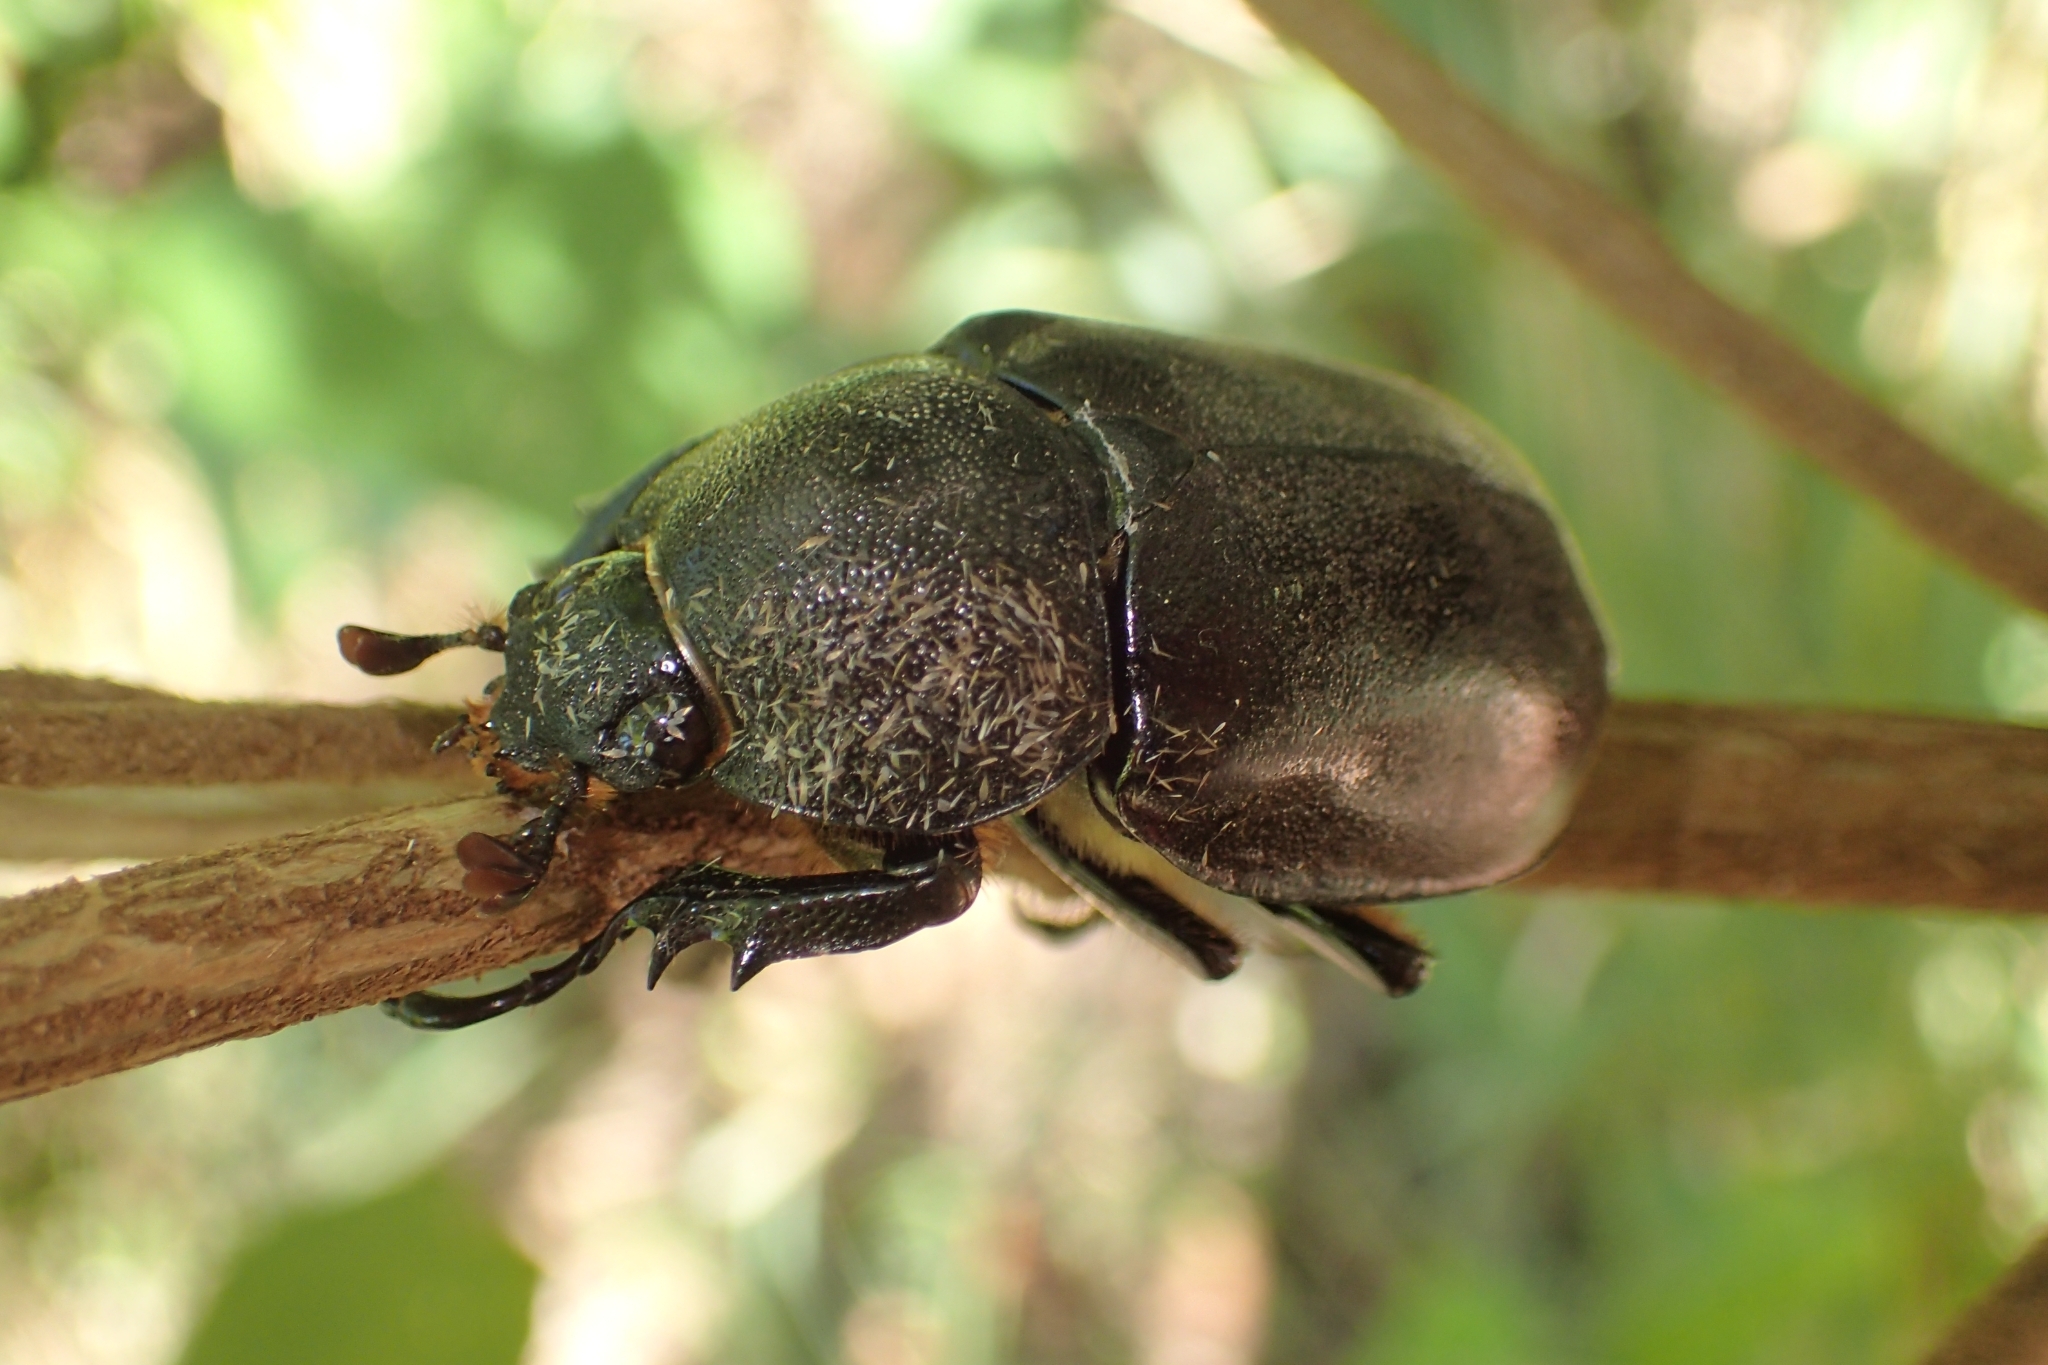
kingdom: Animalia
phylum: Arthropoda
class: Insecta
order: Coleoptera
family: Scarabaeidae
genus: Xylotrupes
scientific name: Xylotrupes australicus
